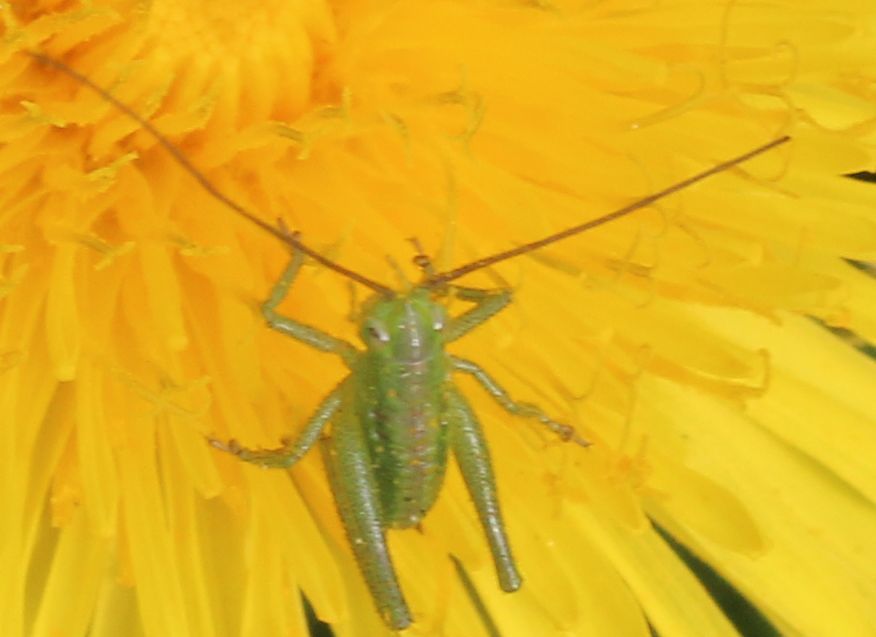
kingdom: Animalia
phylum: Arthropoda
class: Insecta
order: Orthoptera
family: Tettigoniidae
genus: Tettigonia
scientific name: Tettigonia viridissima
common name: Great green bush-cricket
